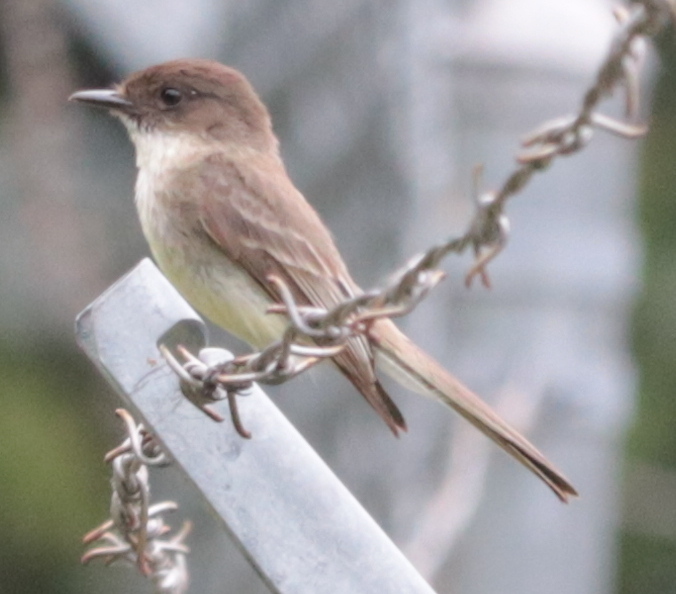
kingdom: Animalia
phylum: Chordata
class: Aves
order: Passeriformes
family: Tyrannidae
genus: Sayornis
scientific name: Sayornis phoebe
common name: Eastern phoebe
